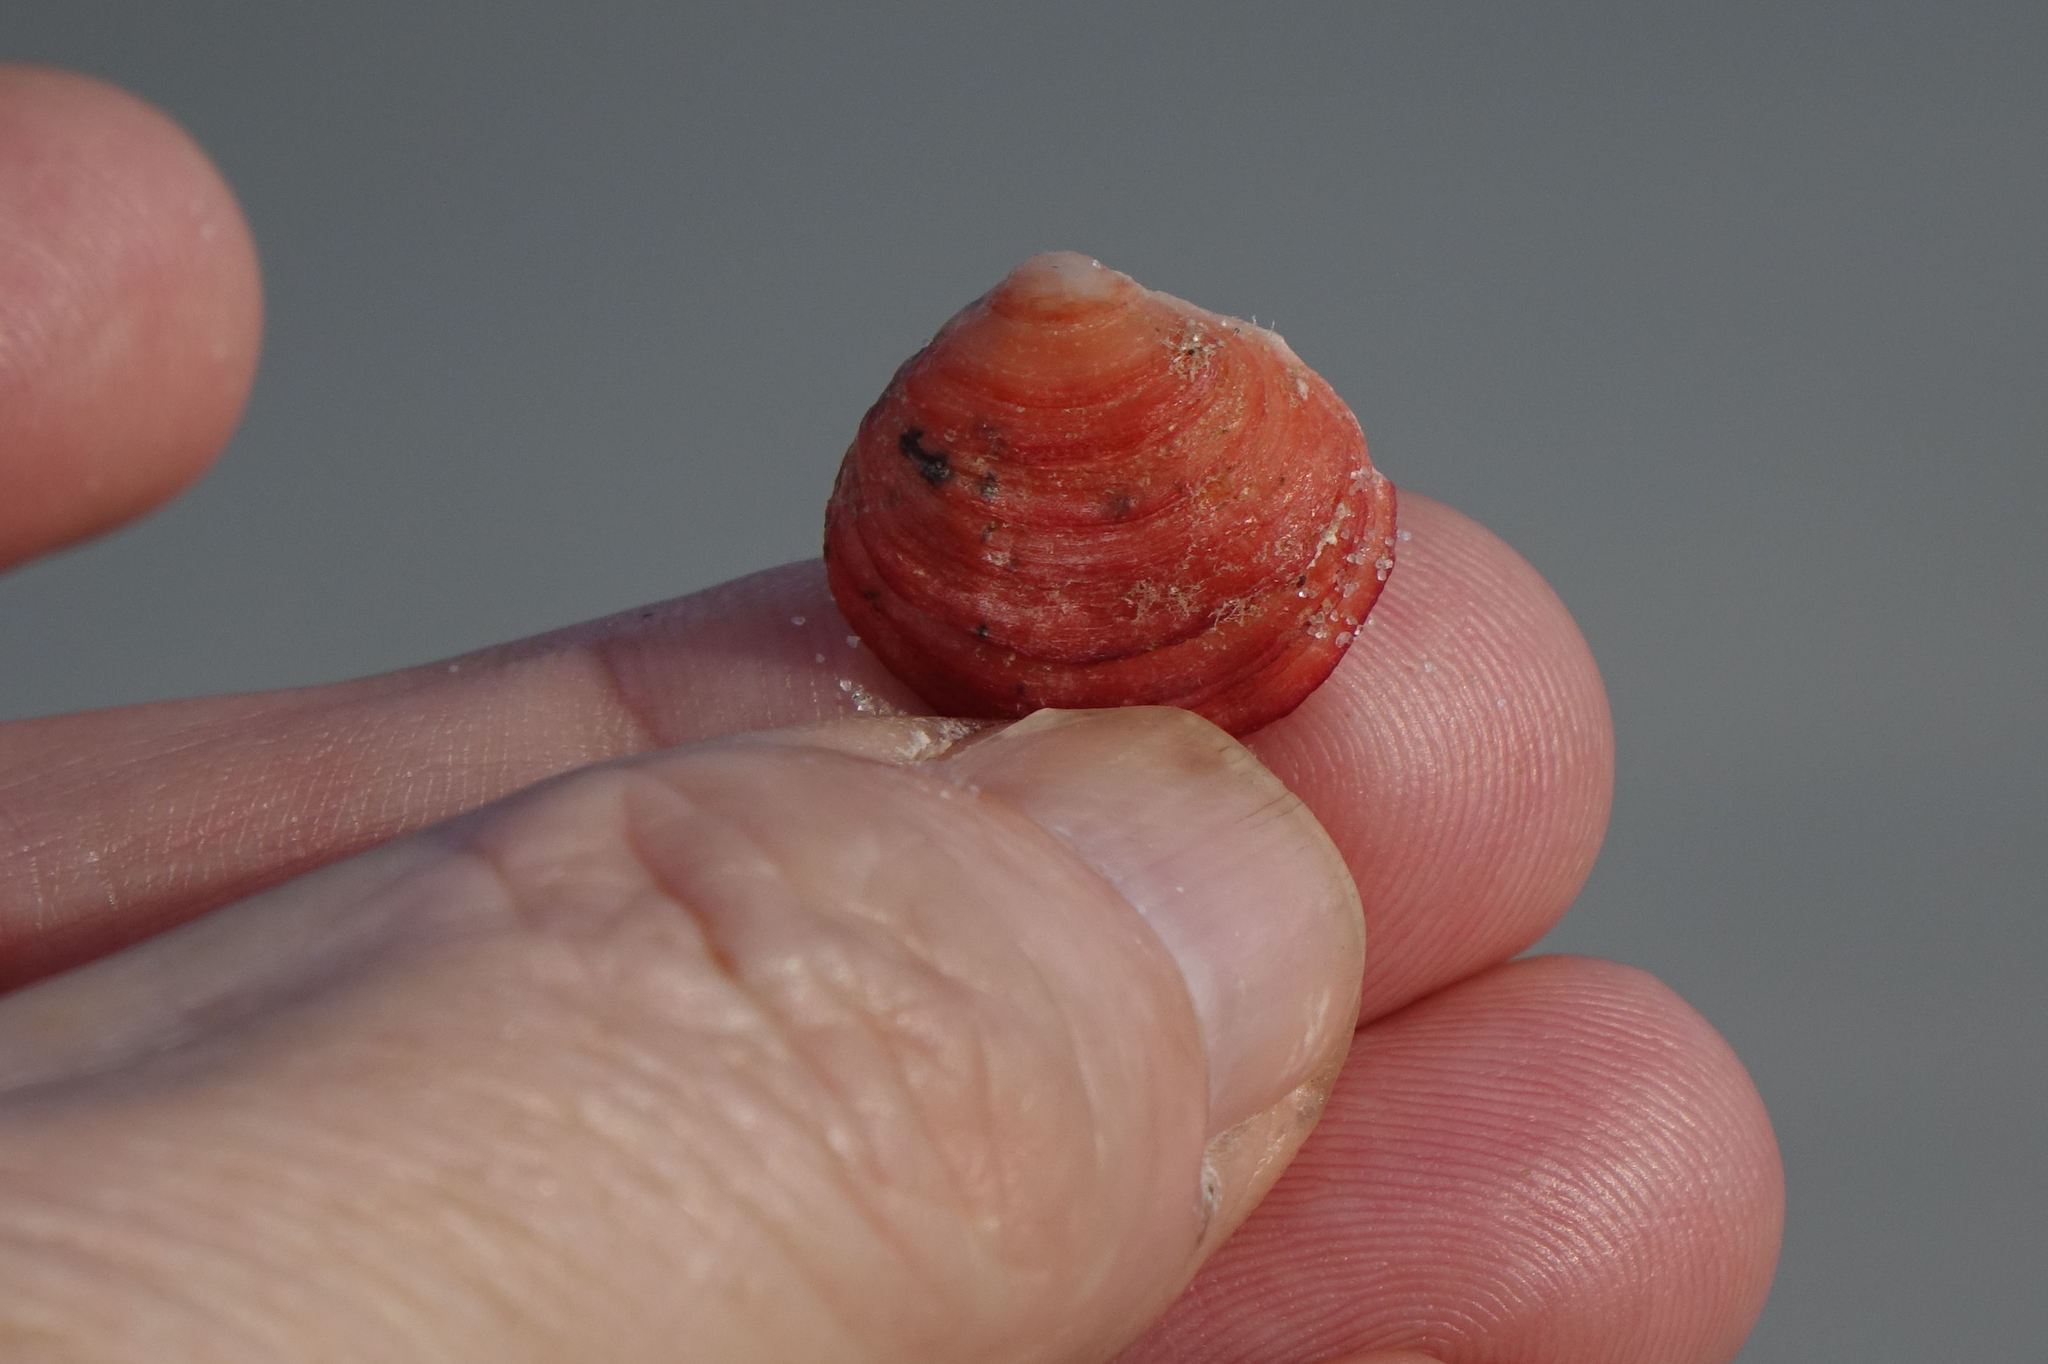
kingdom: Animalia
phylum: Brachiopoda
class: Rhynchonellata
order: Terebratulida
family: Terebratellidae
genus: Calloria
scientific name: Calloria inconspicua
